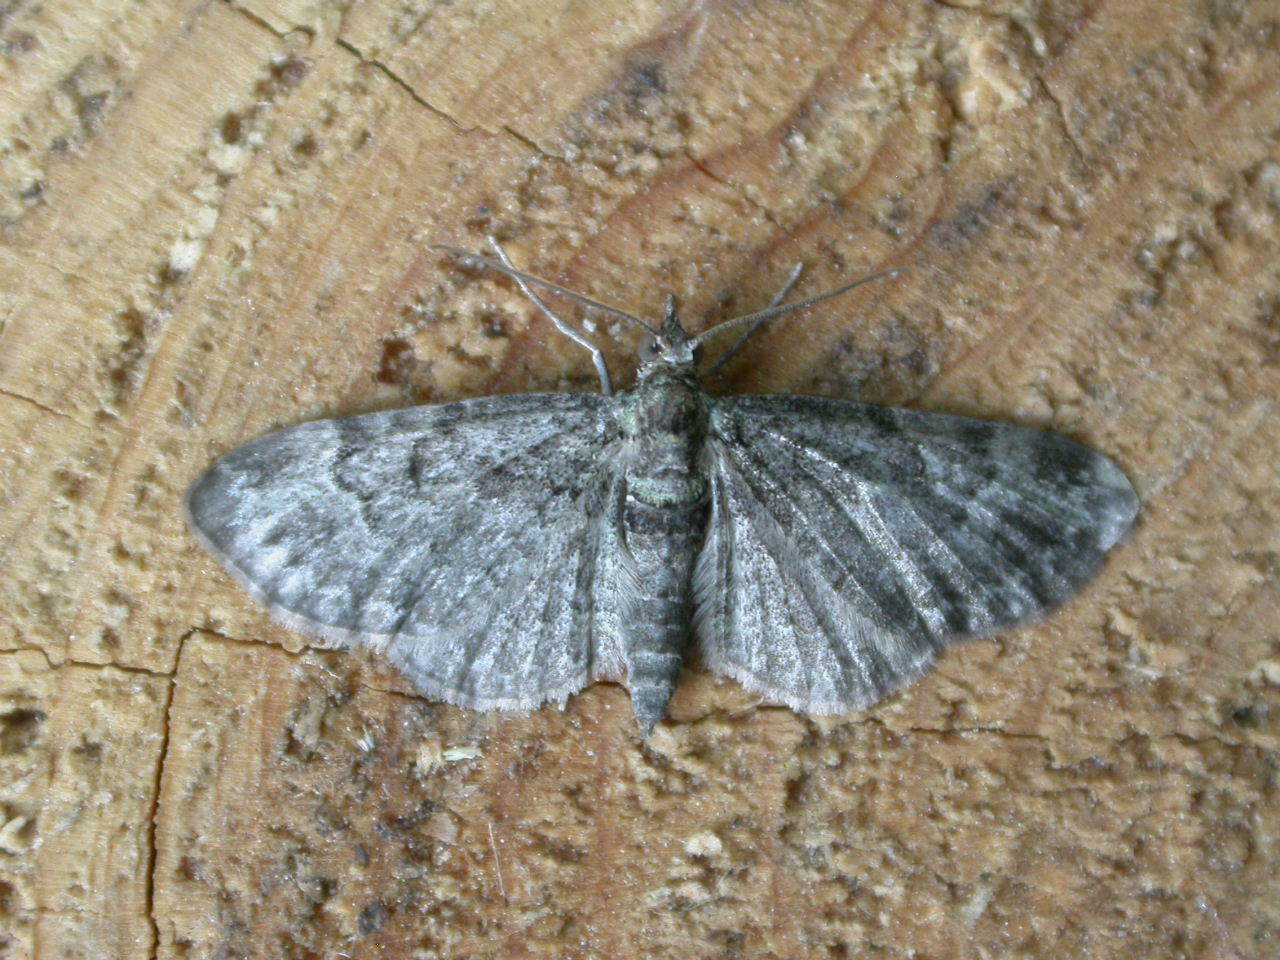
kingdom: Animalia
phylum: Arthropoda
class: Insecta
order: Lepidoptera
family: Geometridae
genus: Pasiphila
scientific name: Pasiphila rectangulata
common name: Green pug
